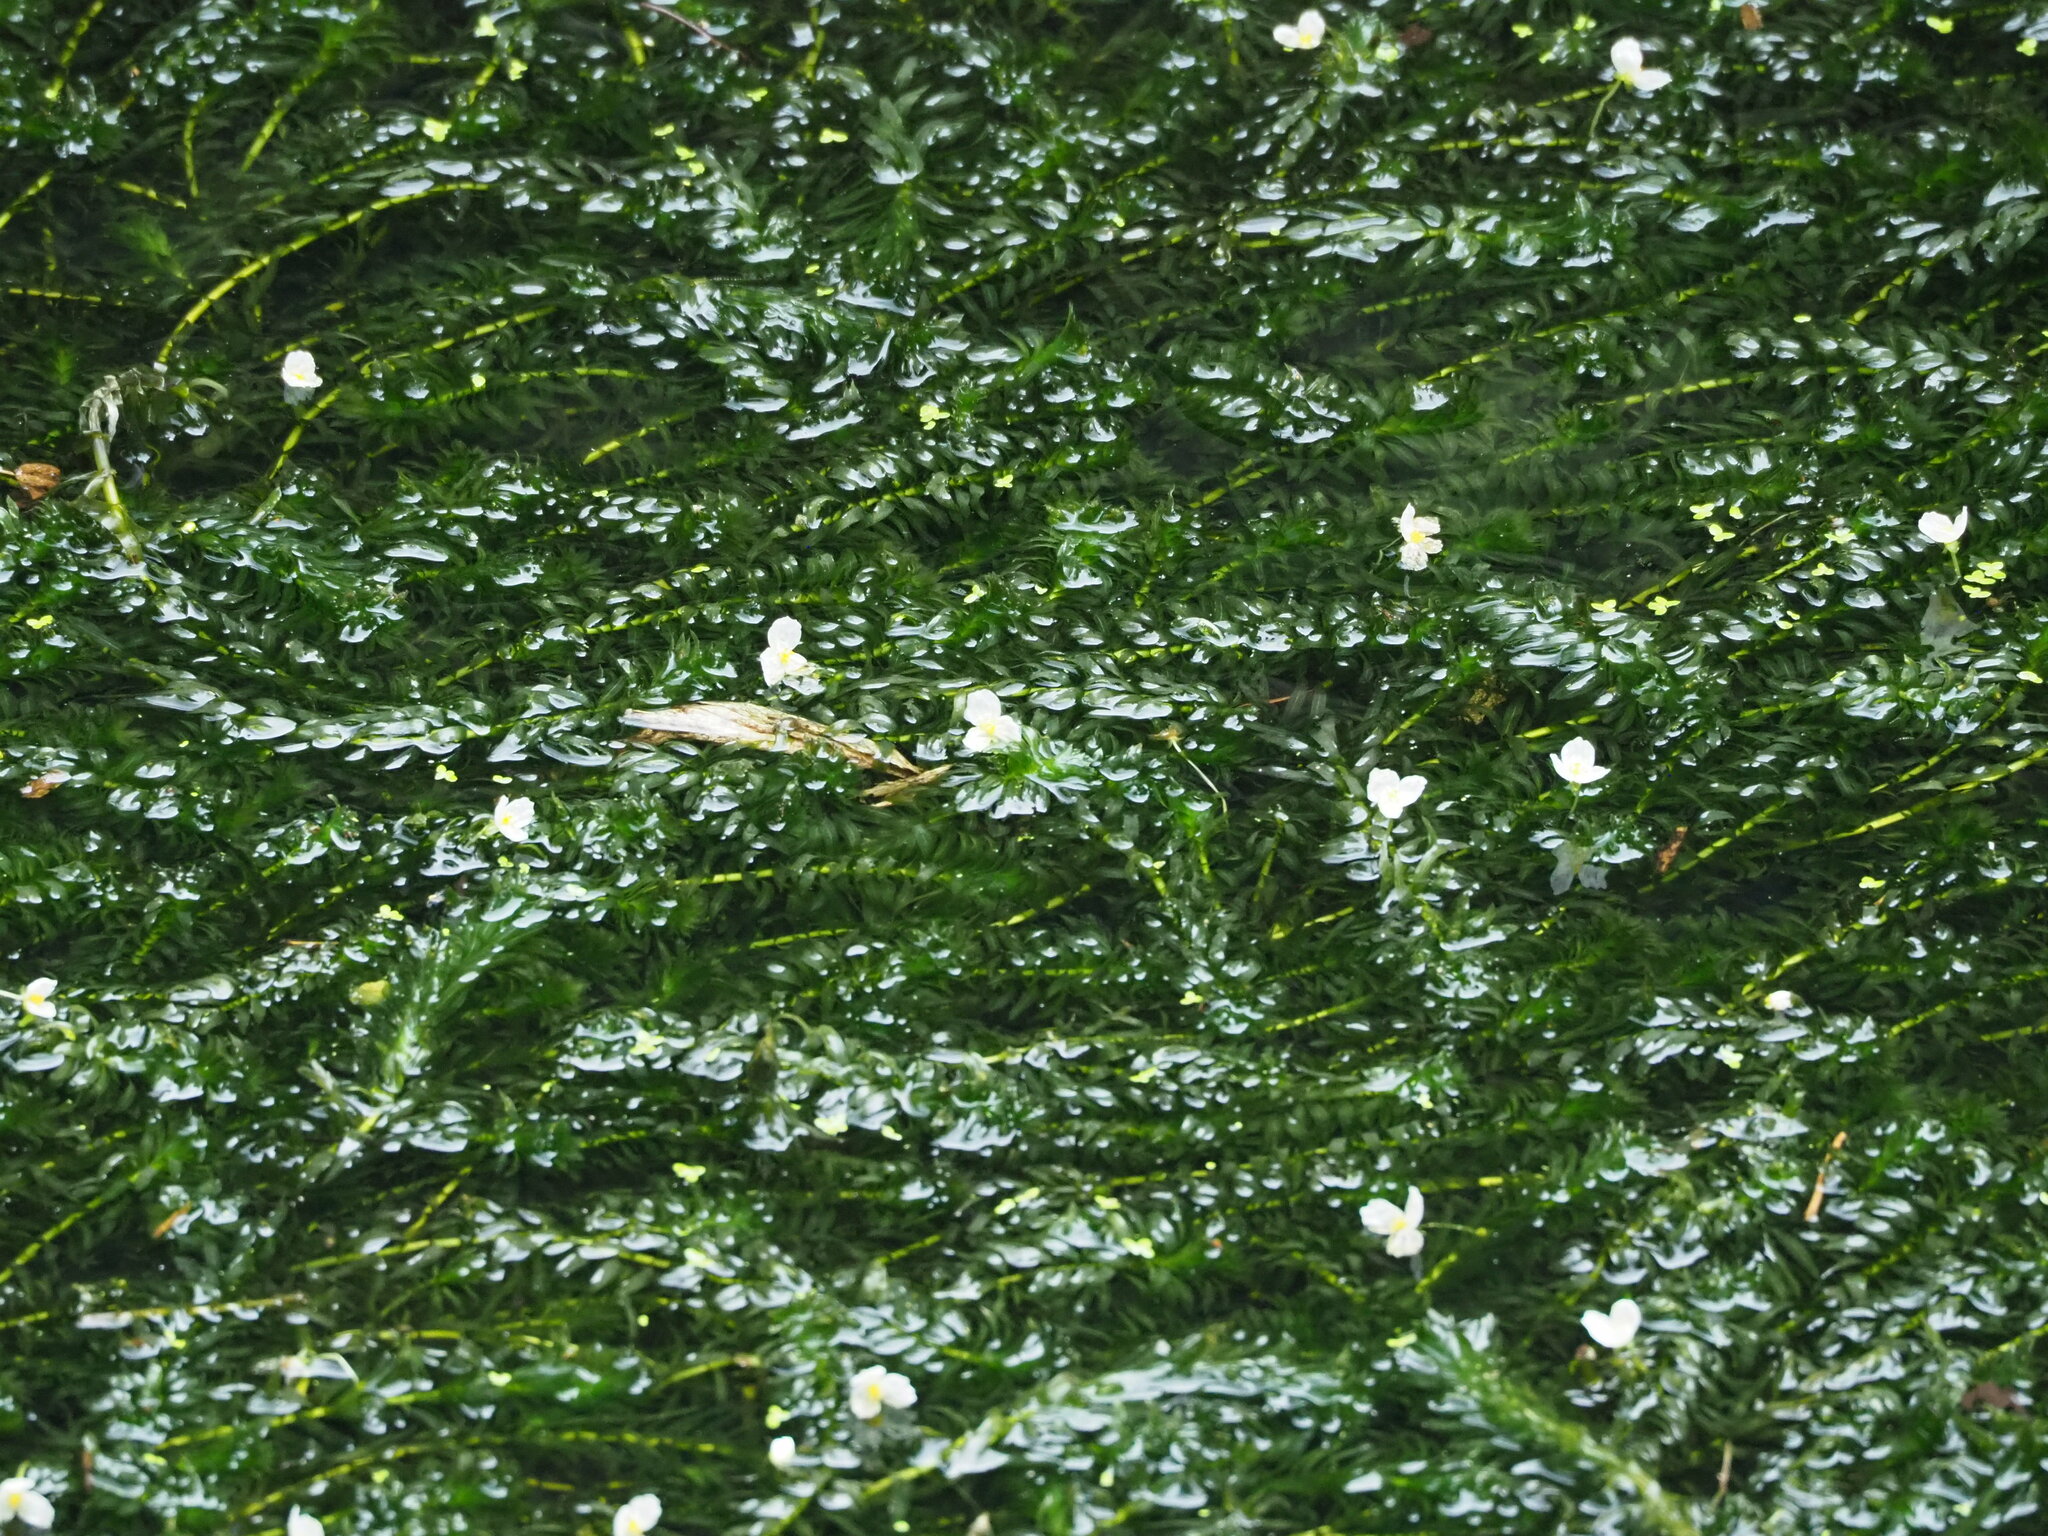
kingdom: Plantae
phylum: Tracheophyta
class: Liliopsida
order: Alismatales
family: Hydrocharitaceae
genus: Elodea
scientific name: Elodea densa
